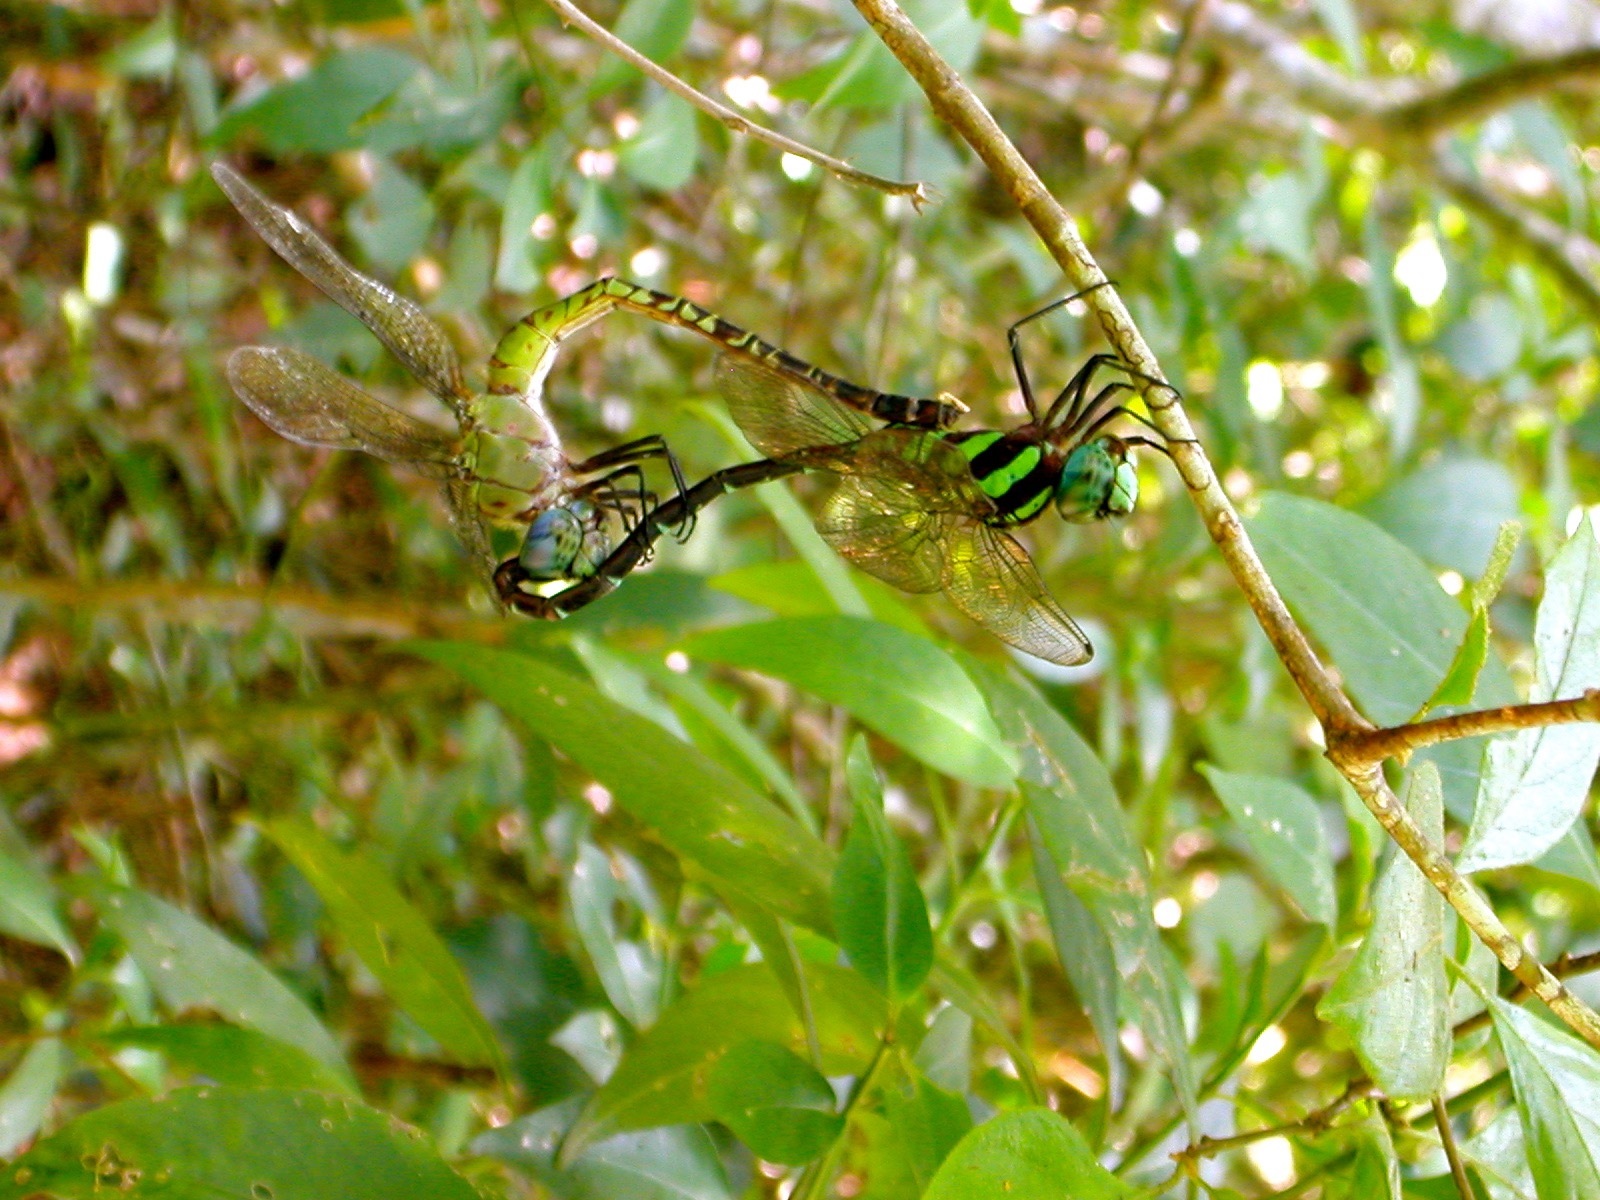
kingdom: Animalia
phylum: Arthropoda
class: Insecta
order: Odonata
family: Aeshnidae
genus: Remartinia
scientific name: Remartinia secreta
